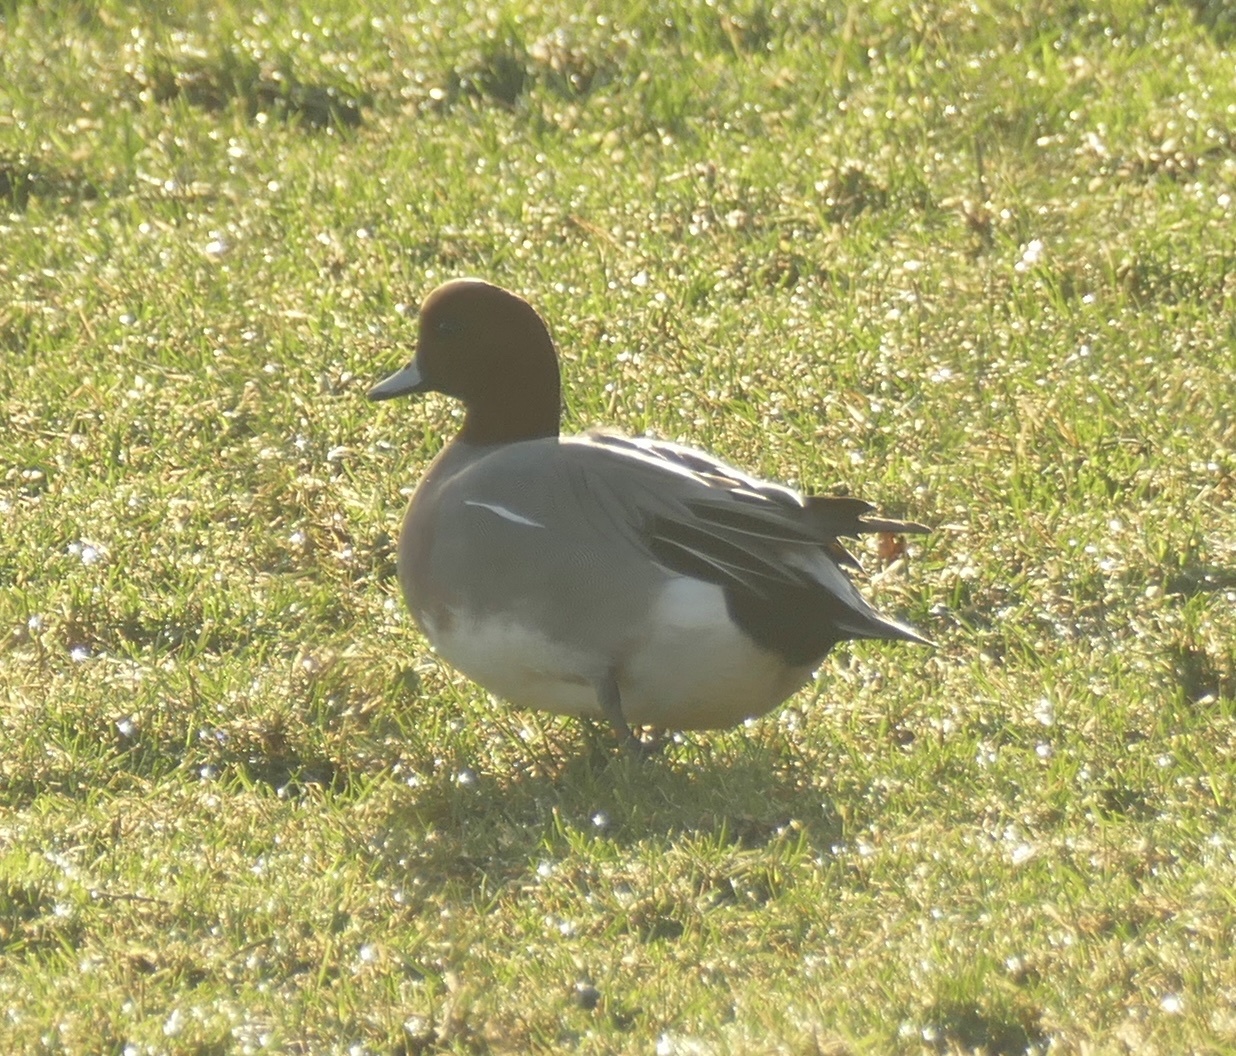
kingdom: Animalia
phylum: Chordata
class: Aves
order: Anseriformes
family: Anatidae
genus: Mareca
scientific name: Mareca penelope
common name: Eurasian wigeon
